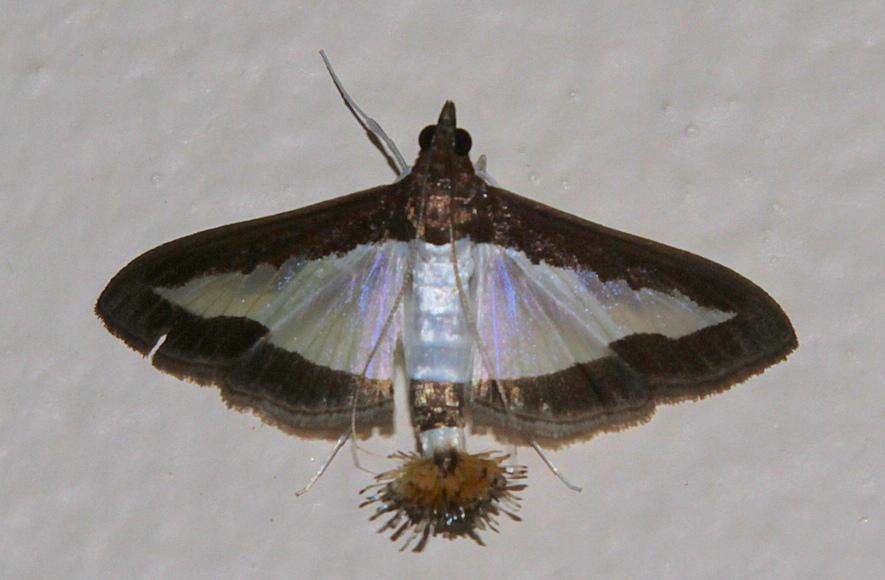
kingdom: Animalia
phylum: Arthropoda
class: Insecta
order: Lepidoptera
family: Crambidae
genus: Diaphania
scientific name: Diaphania indica
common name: Cucumber moth
